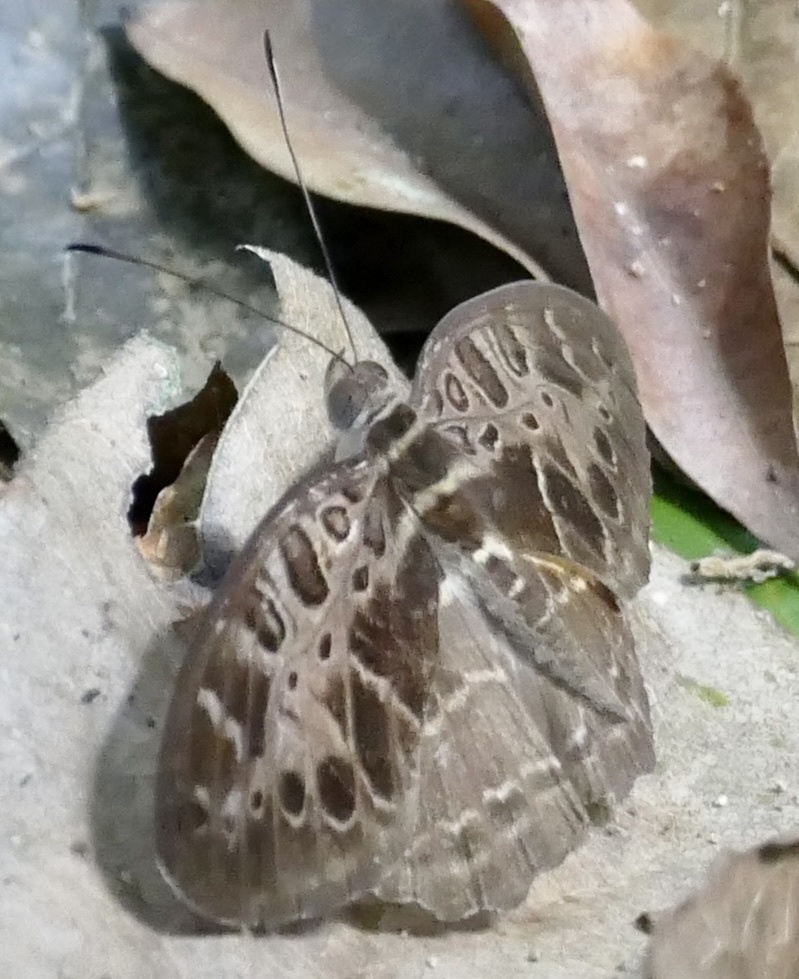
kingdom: Animalia
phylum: Arthropoda
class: Insecta
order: Lepidoptera
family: Nymphalidae
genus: Catuna
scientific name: Catuna
